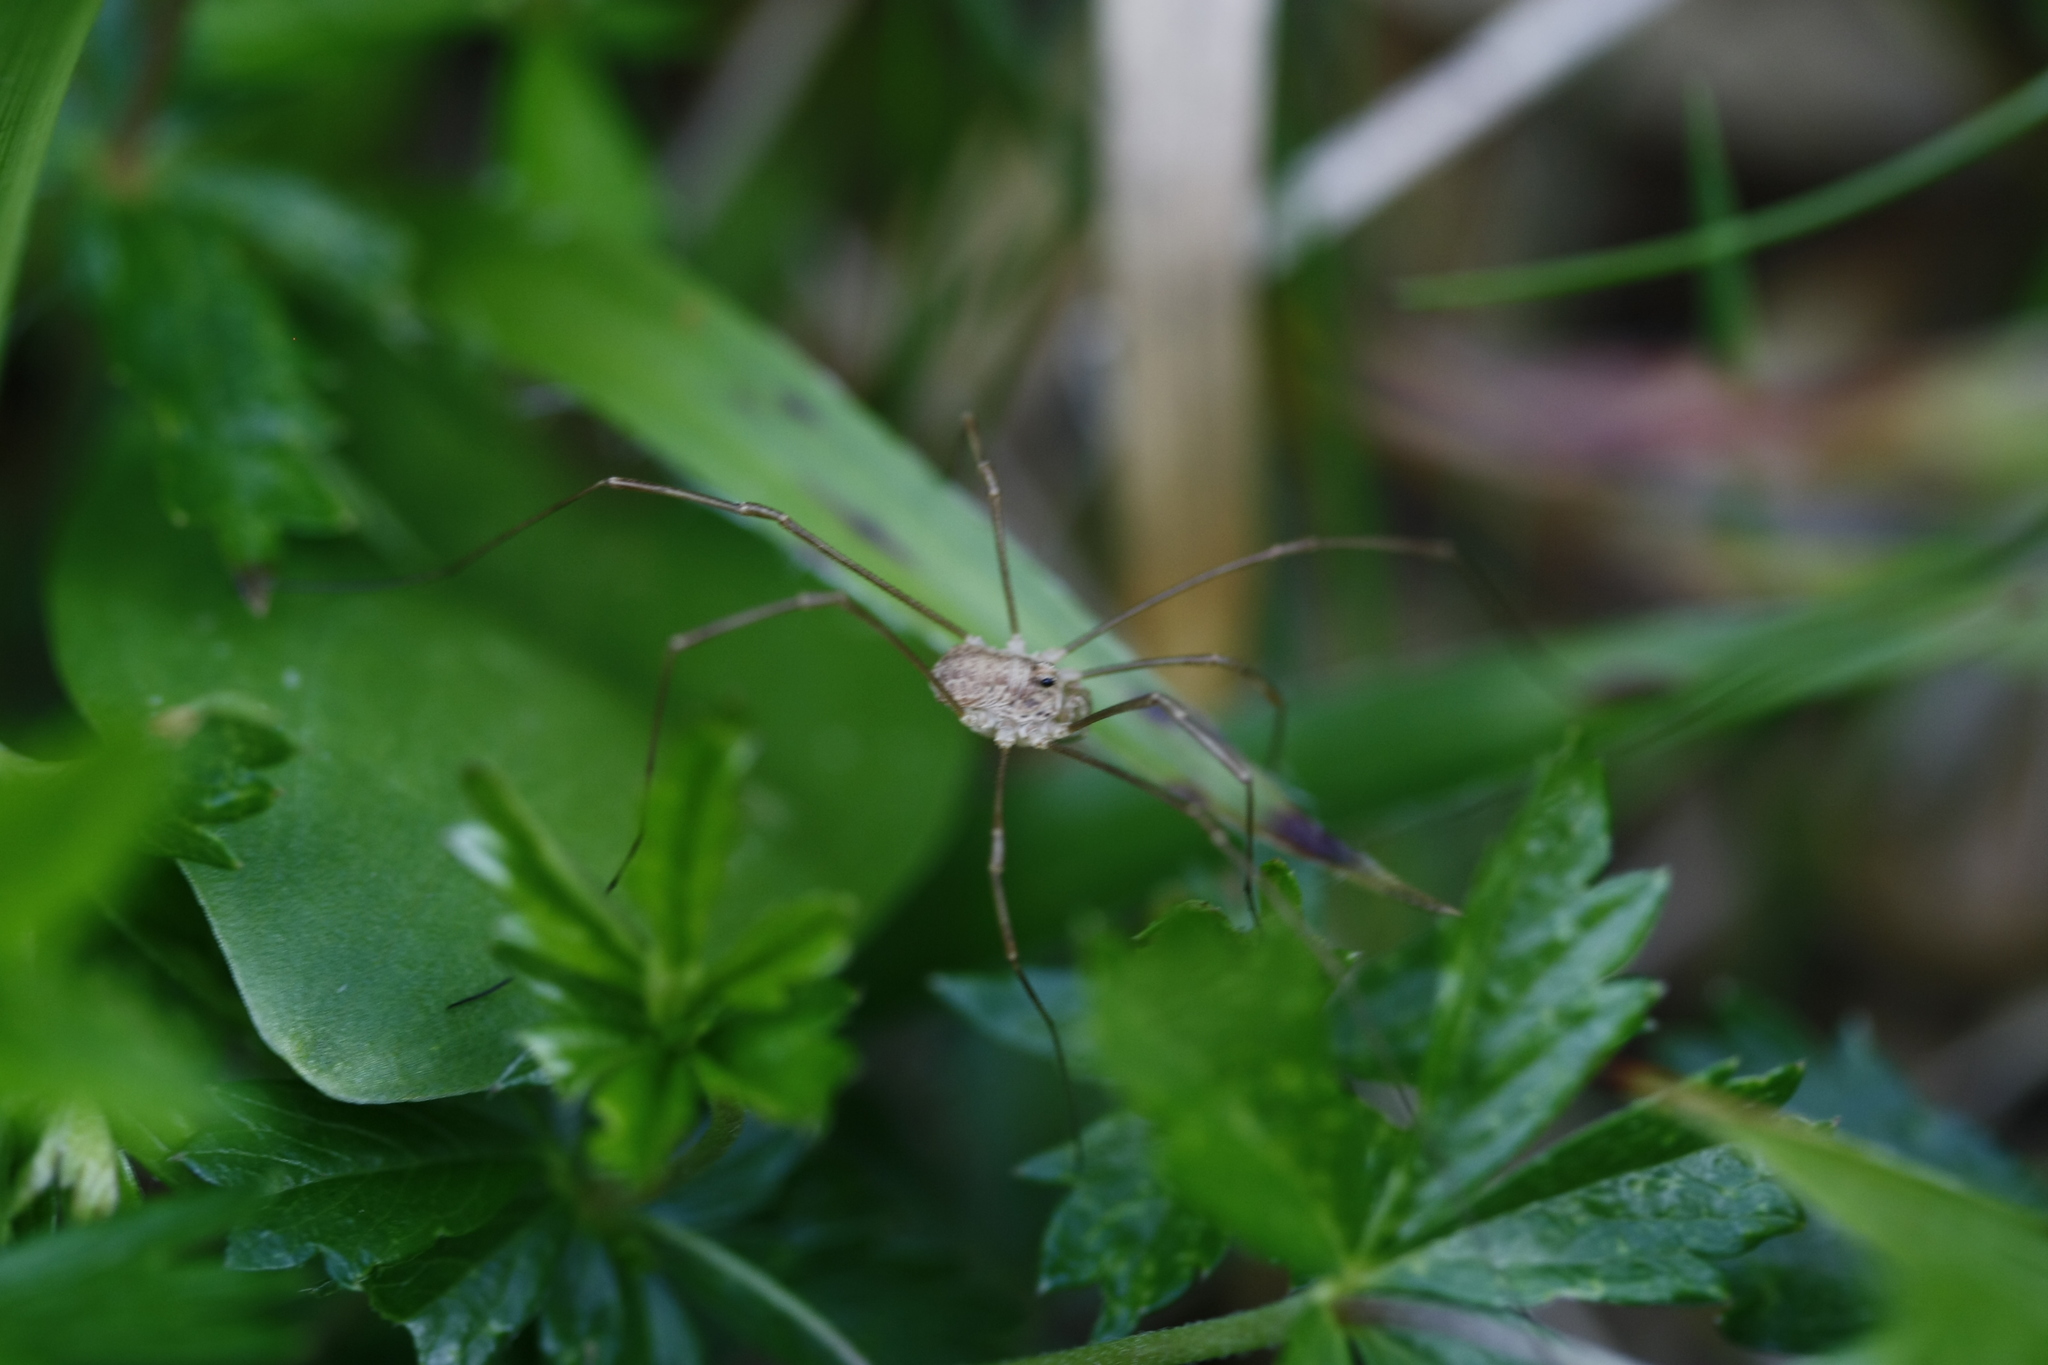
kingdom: Animalia
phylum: Arthropoda
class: Arachnida
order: Opiliones
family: Phalangiidae
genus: Rilaena
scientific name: Rilaena triangularis
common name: Spring harvestman
